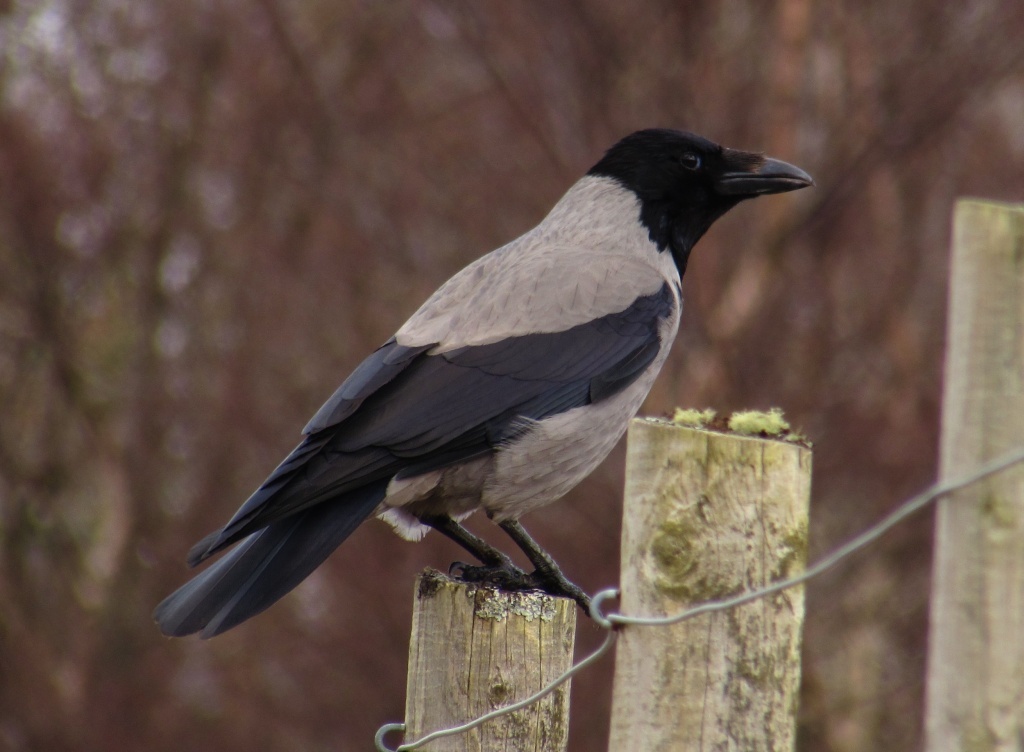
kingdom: Animalia
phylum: Chordata
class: Aves
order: Passeriformes
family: Corvidae
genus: Corvus
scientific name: Corvus cornix
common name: Hooded crow
